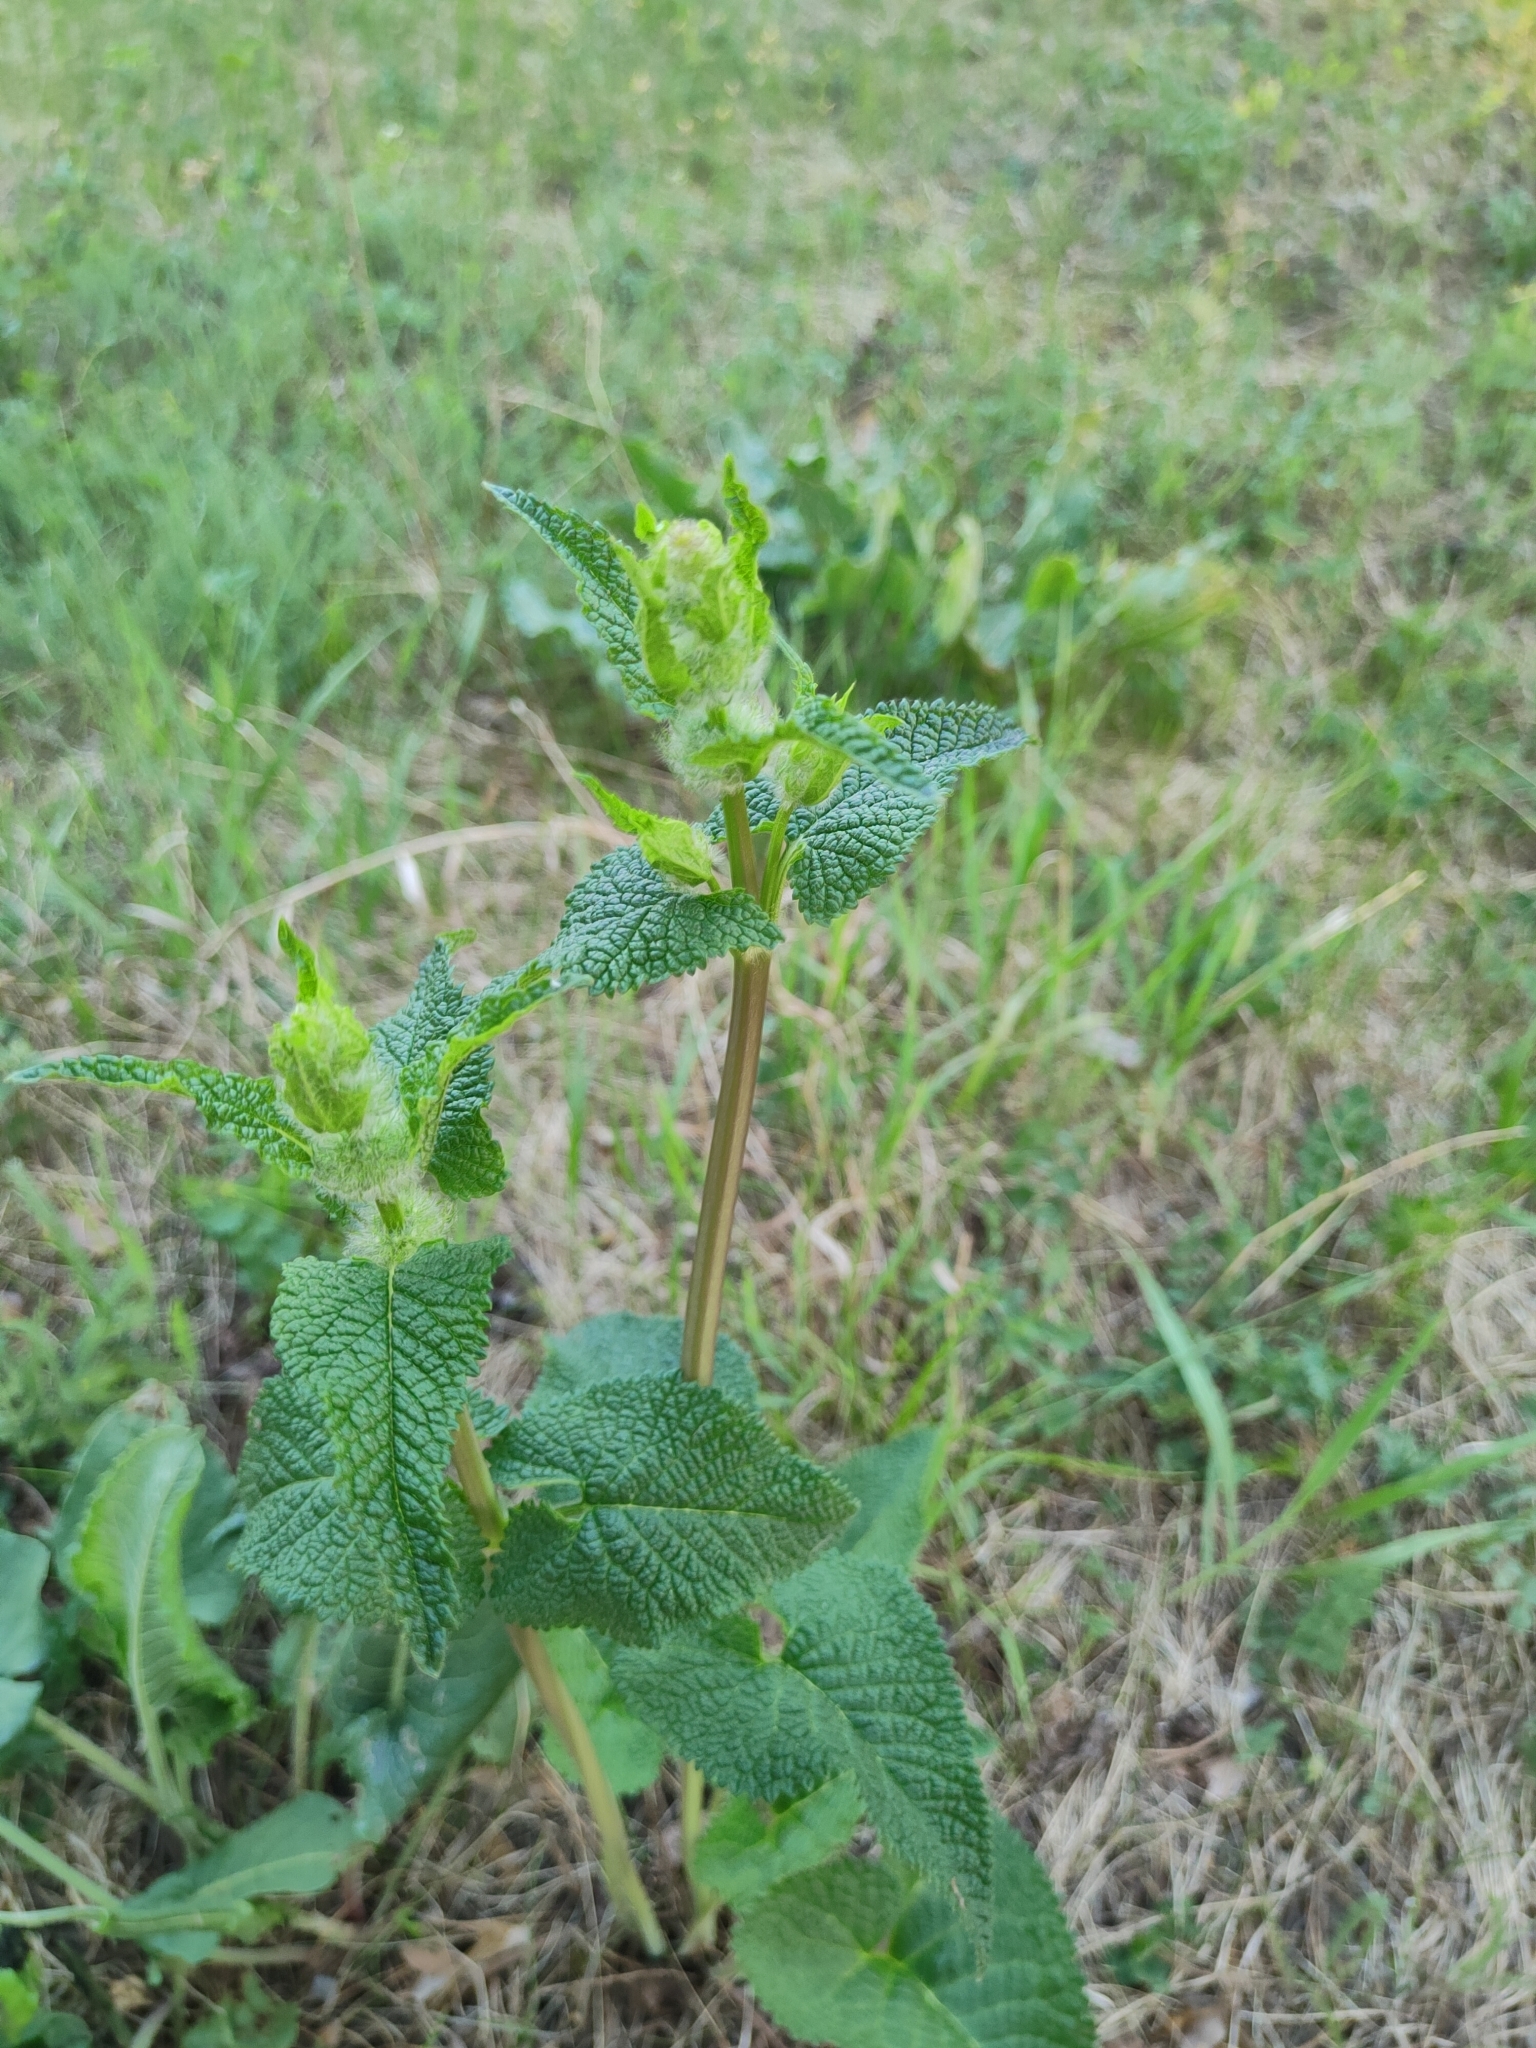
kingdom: Plantae
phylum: Tracheophyta
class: Magnoliopsida
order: Lamiales
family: Lamiaceae
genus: Phlomoides
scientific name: Phlomoides tuberosa
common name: Tuberous jerusalem sage
